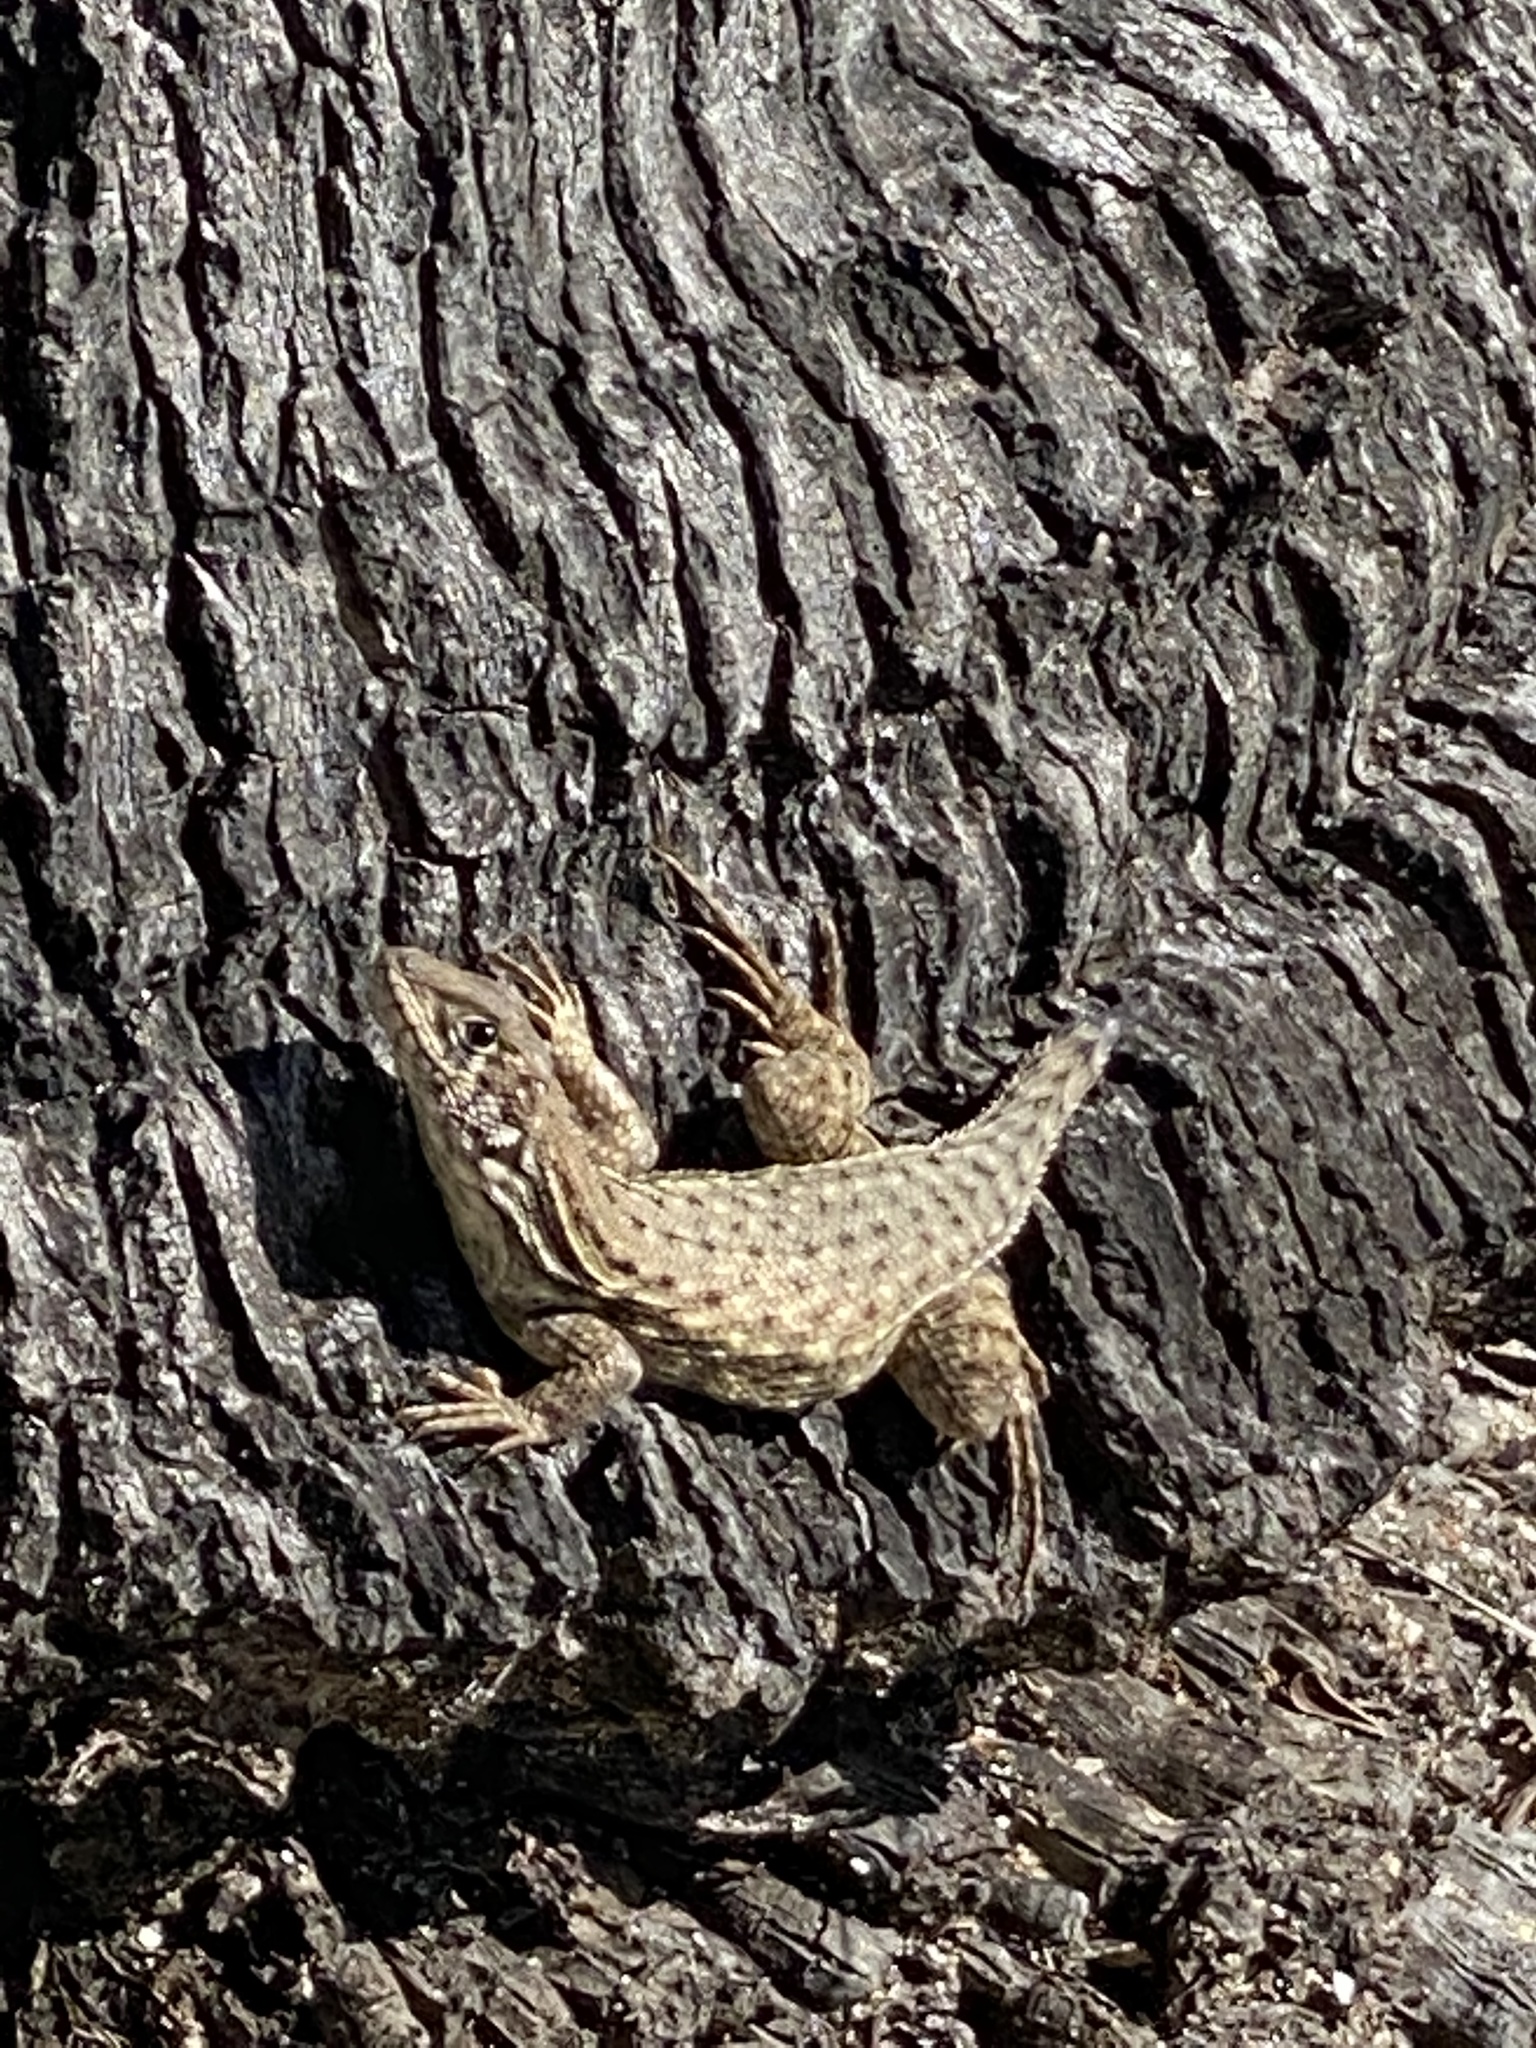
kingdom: Animalia
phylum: Chordata
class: Squamata
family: Leiocephalidae
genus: Leiocephalus
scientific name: Leiocephalus carinatus
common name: Northern curly-tailed lizard
